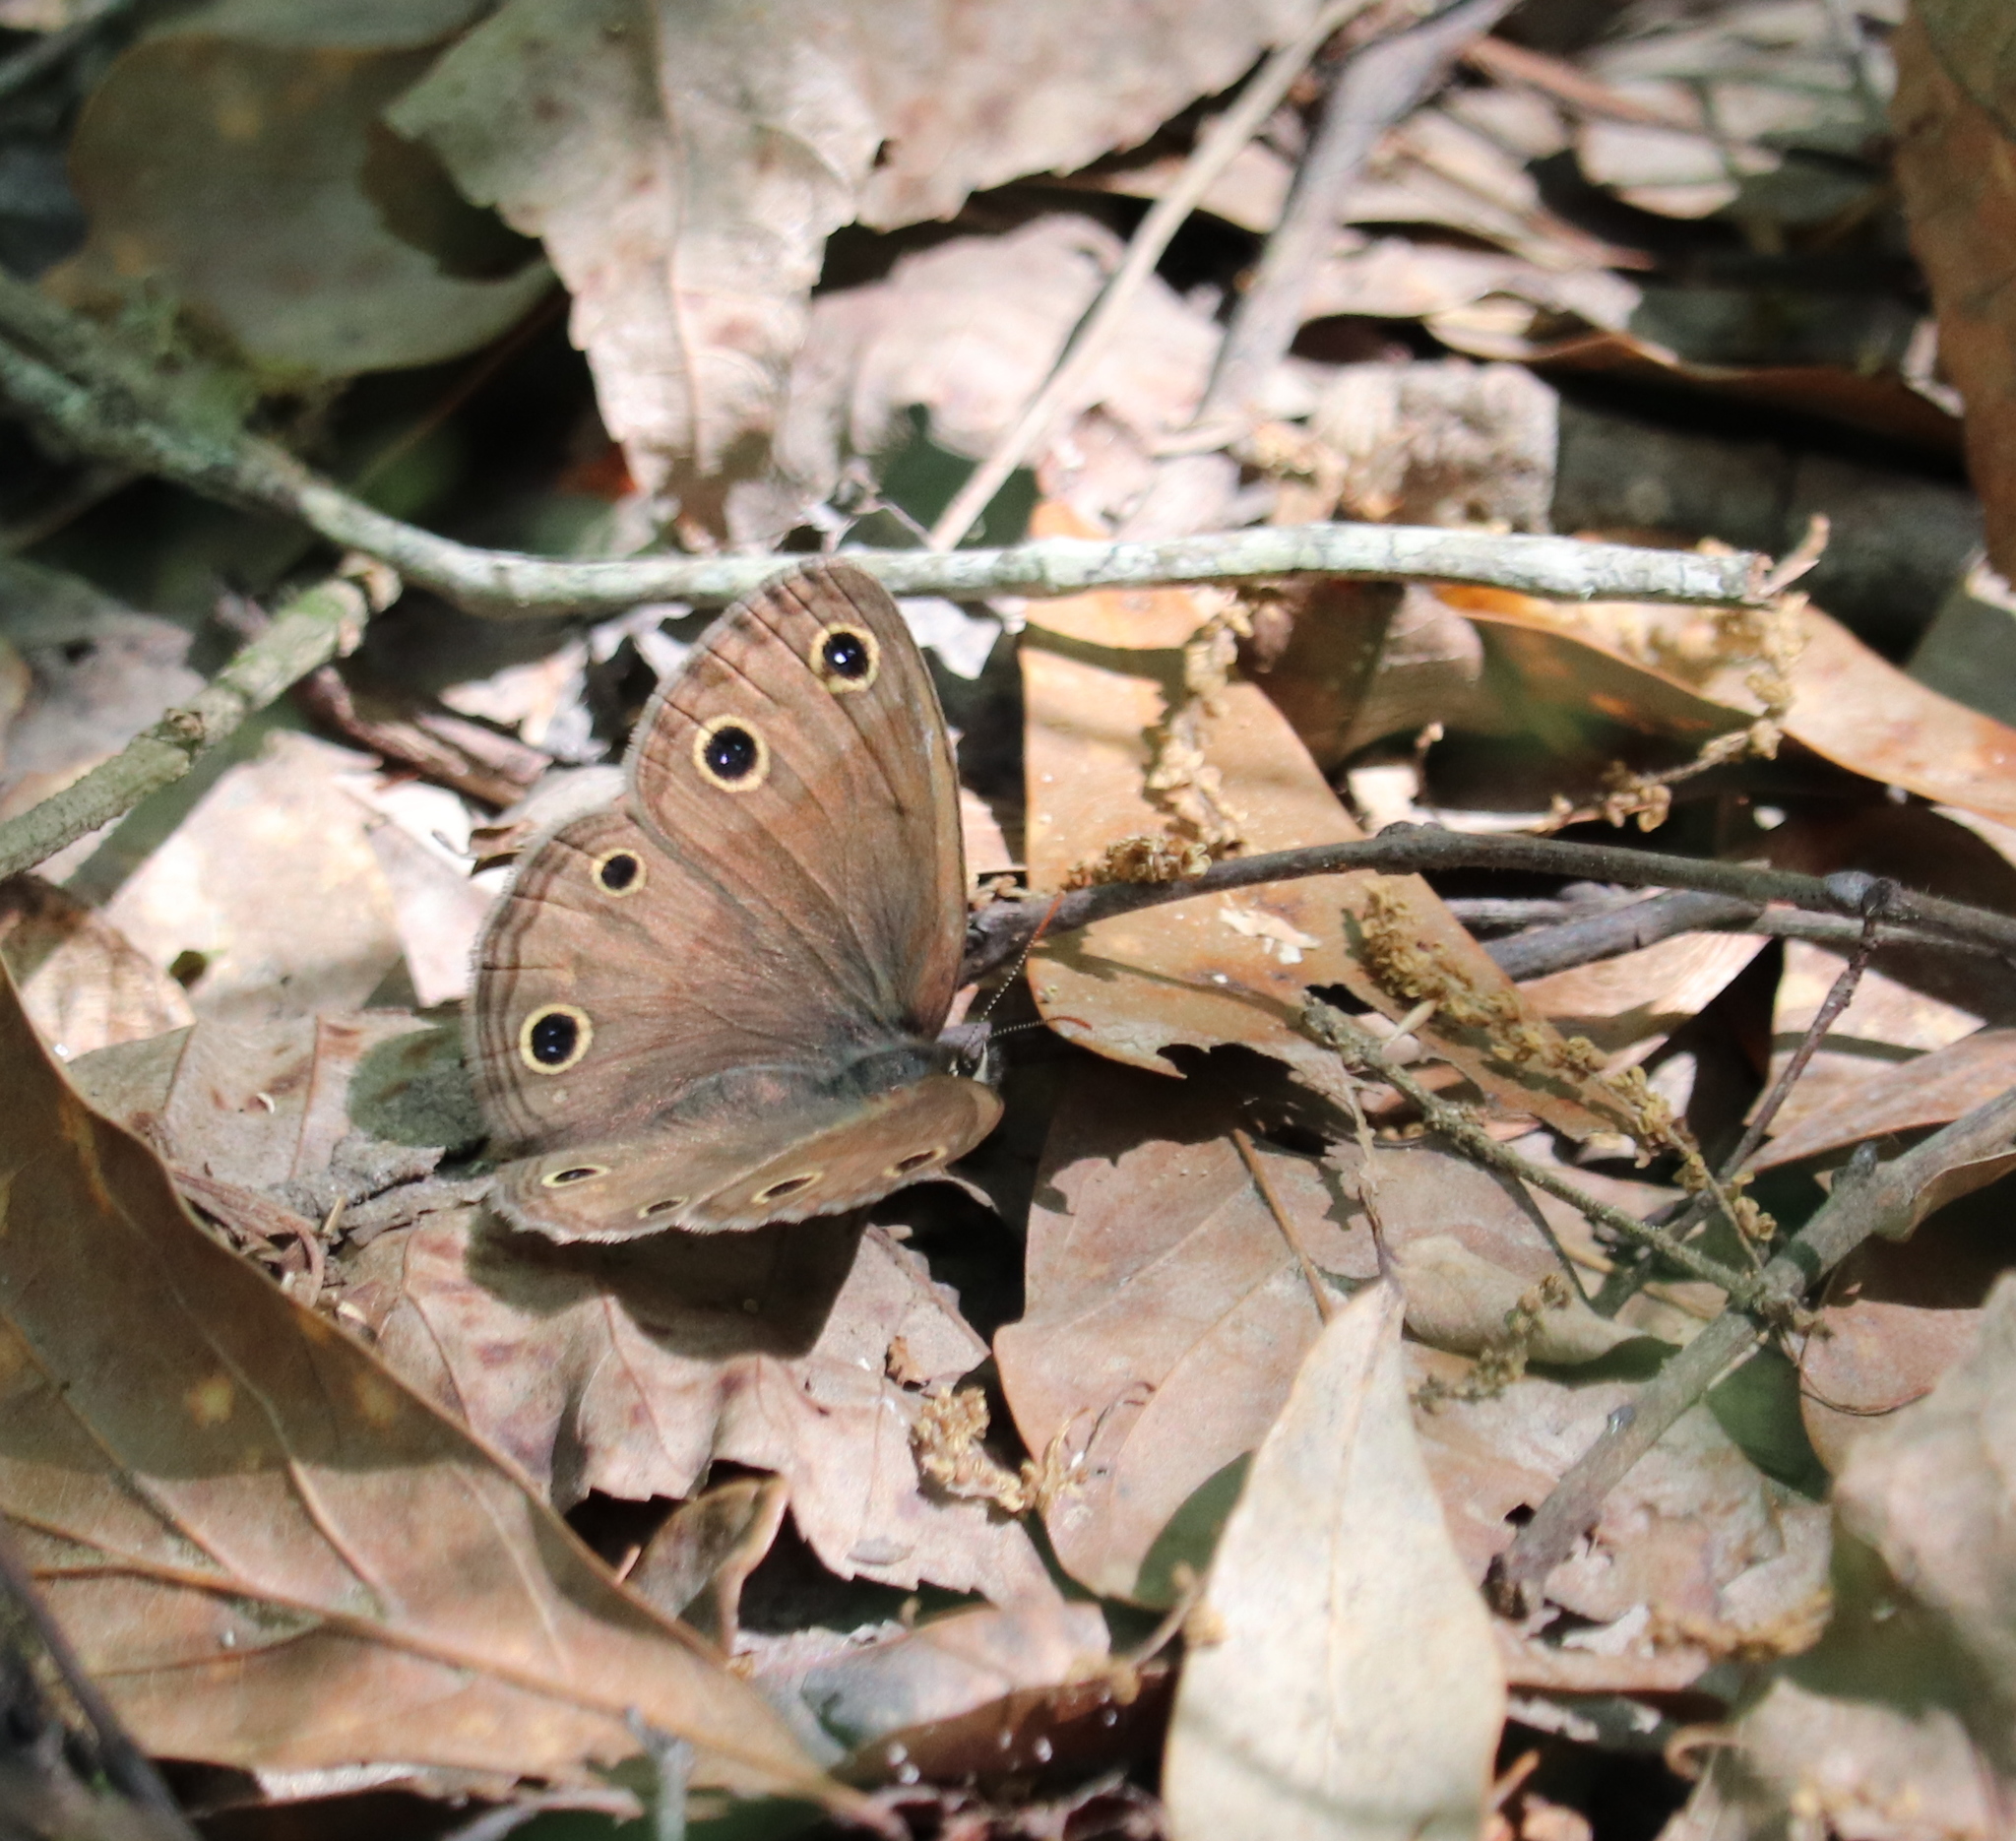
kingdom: Animalia
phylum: Arthropoda
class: Insecta
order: Lepidoptera
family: Nymphalidae
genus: Euptychia
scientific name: Euptychia cymela
